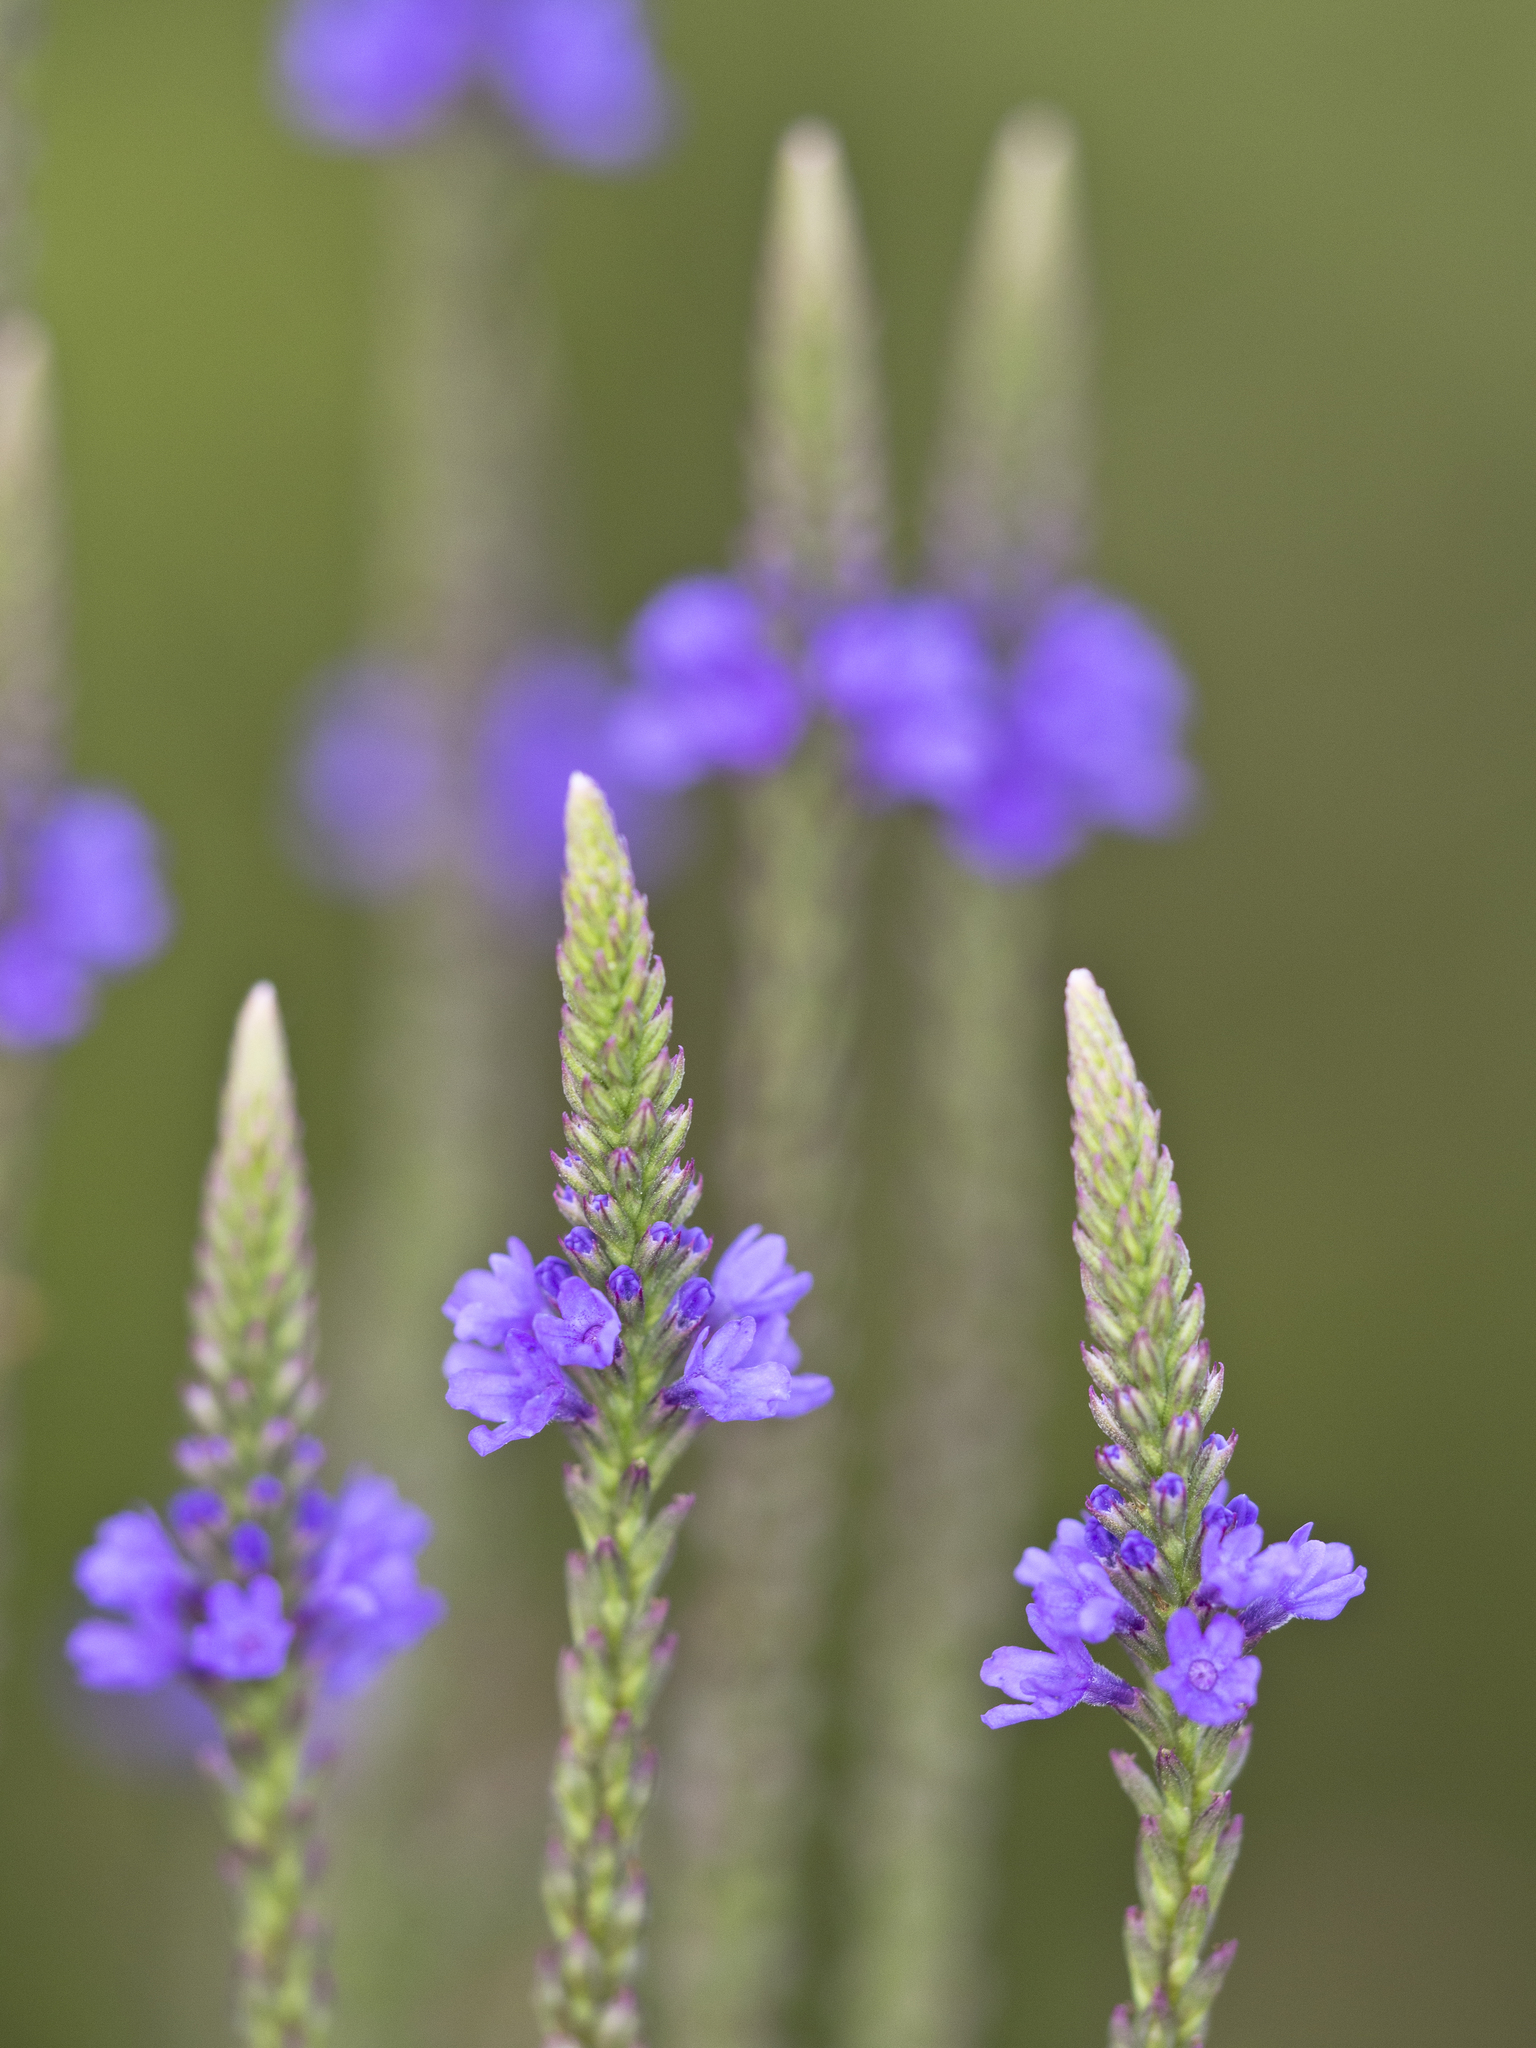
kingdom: Plantae
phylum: Tracheophyta
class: Magnoliopsida
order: Lamiales
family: Verbenaceae
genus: Verbena
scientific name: Verbena hastata
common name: American blue vervain
